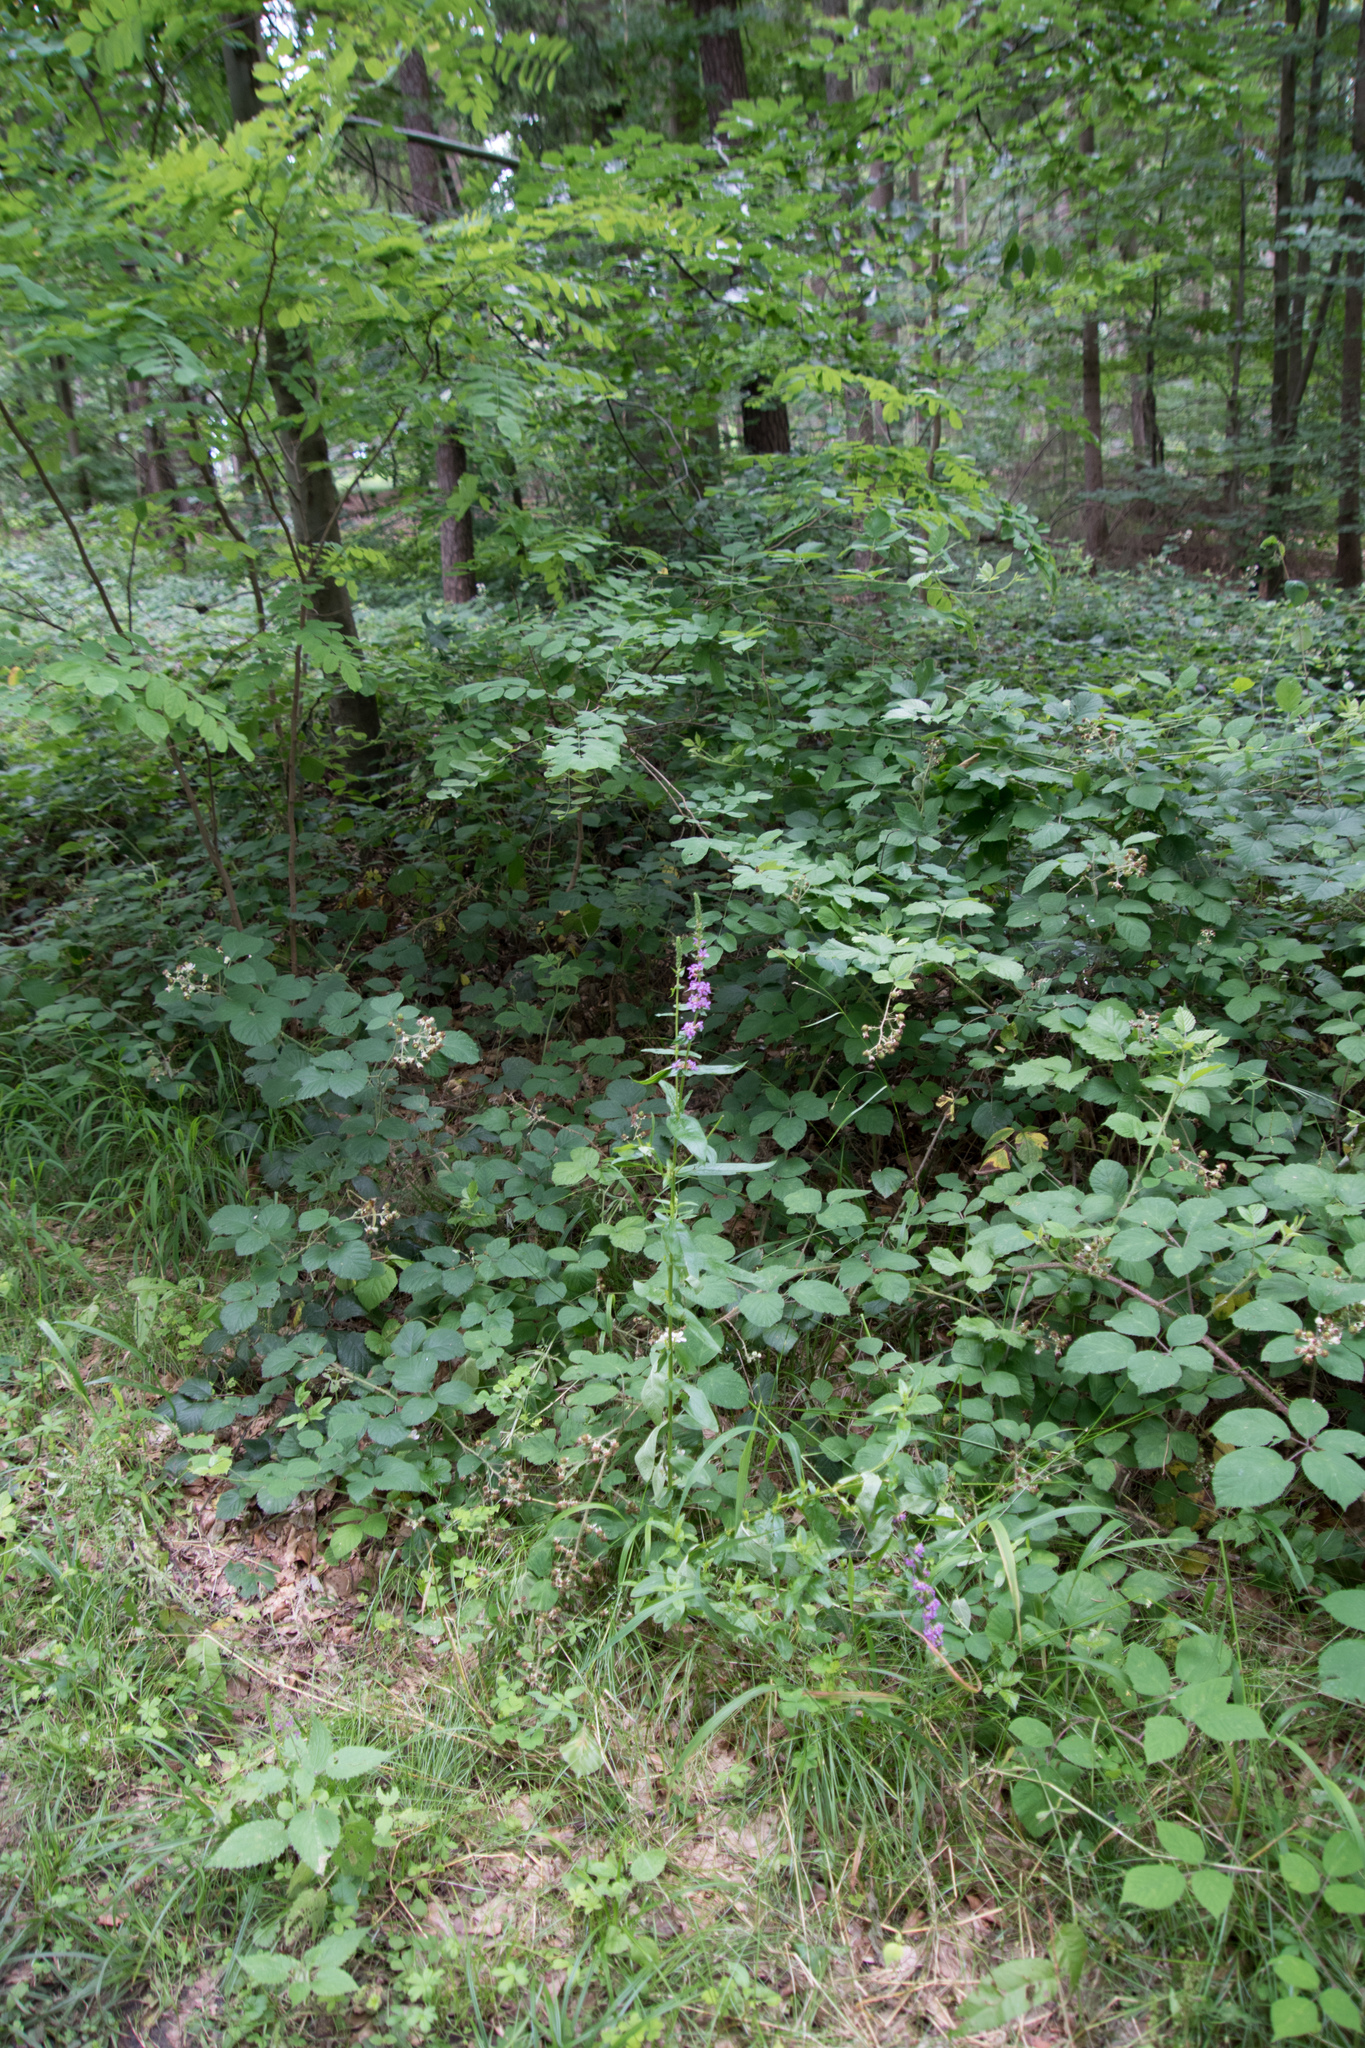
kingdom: Plantae
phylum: Tracheophyta
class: Magnoliopsida
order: Myrtales
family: Lythraceae
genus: Lythrum
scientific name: Lythrum salicaria
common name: Purple loosestrife
